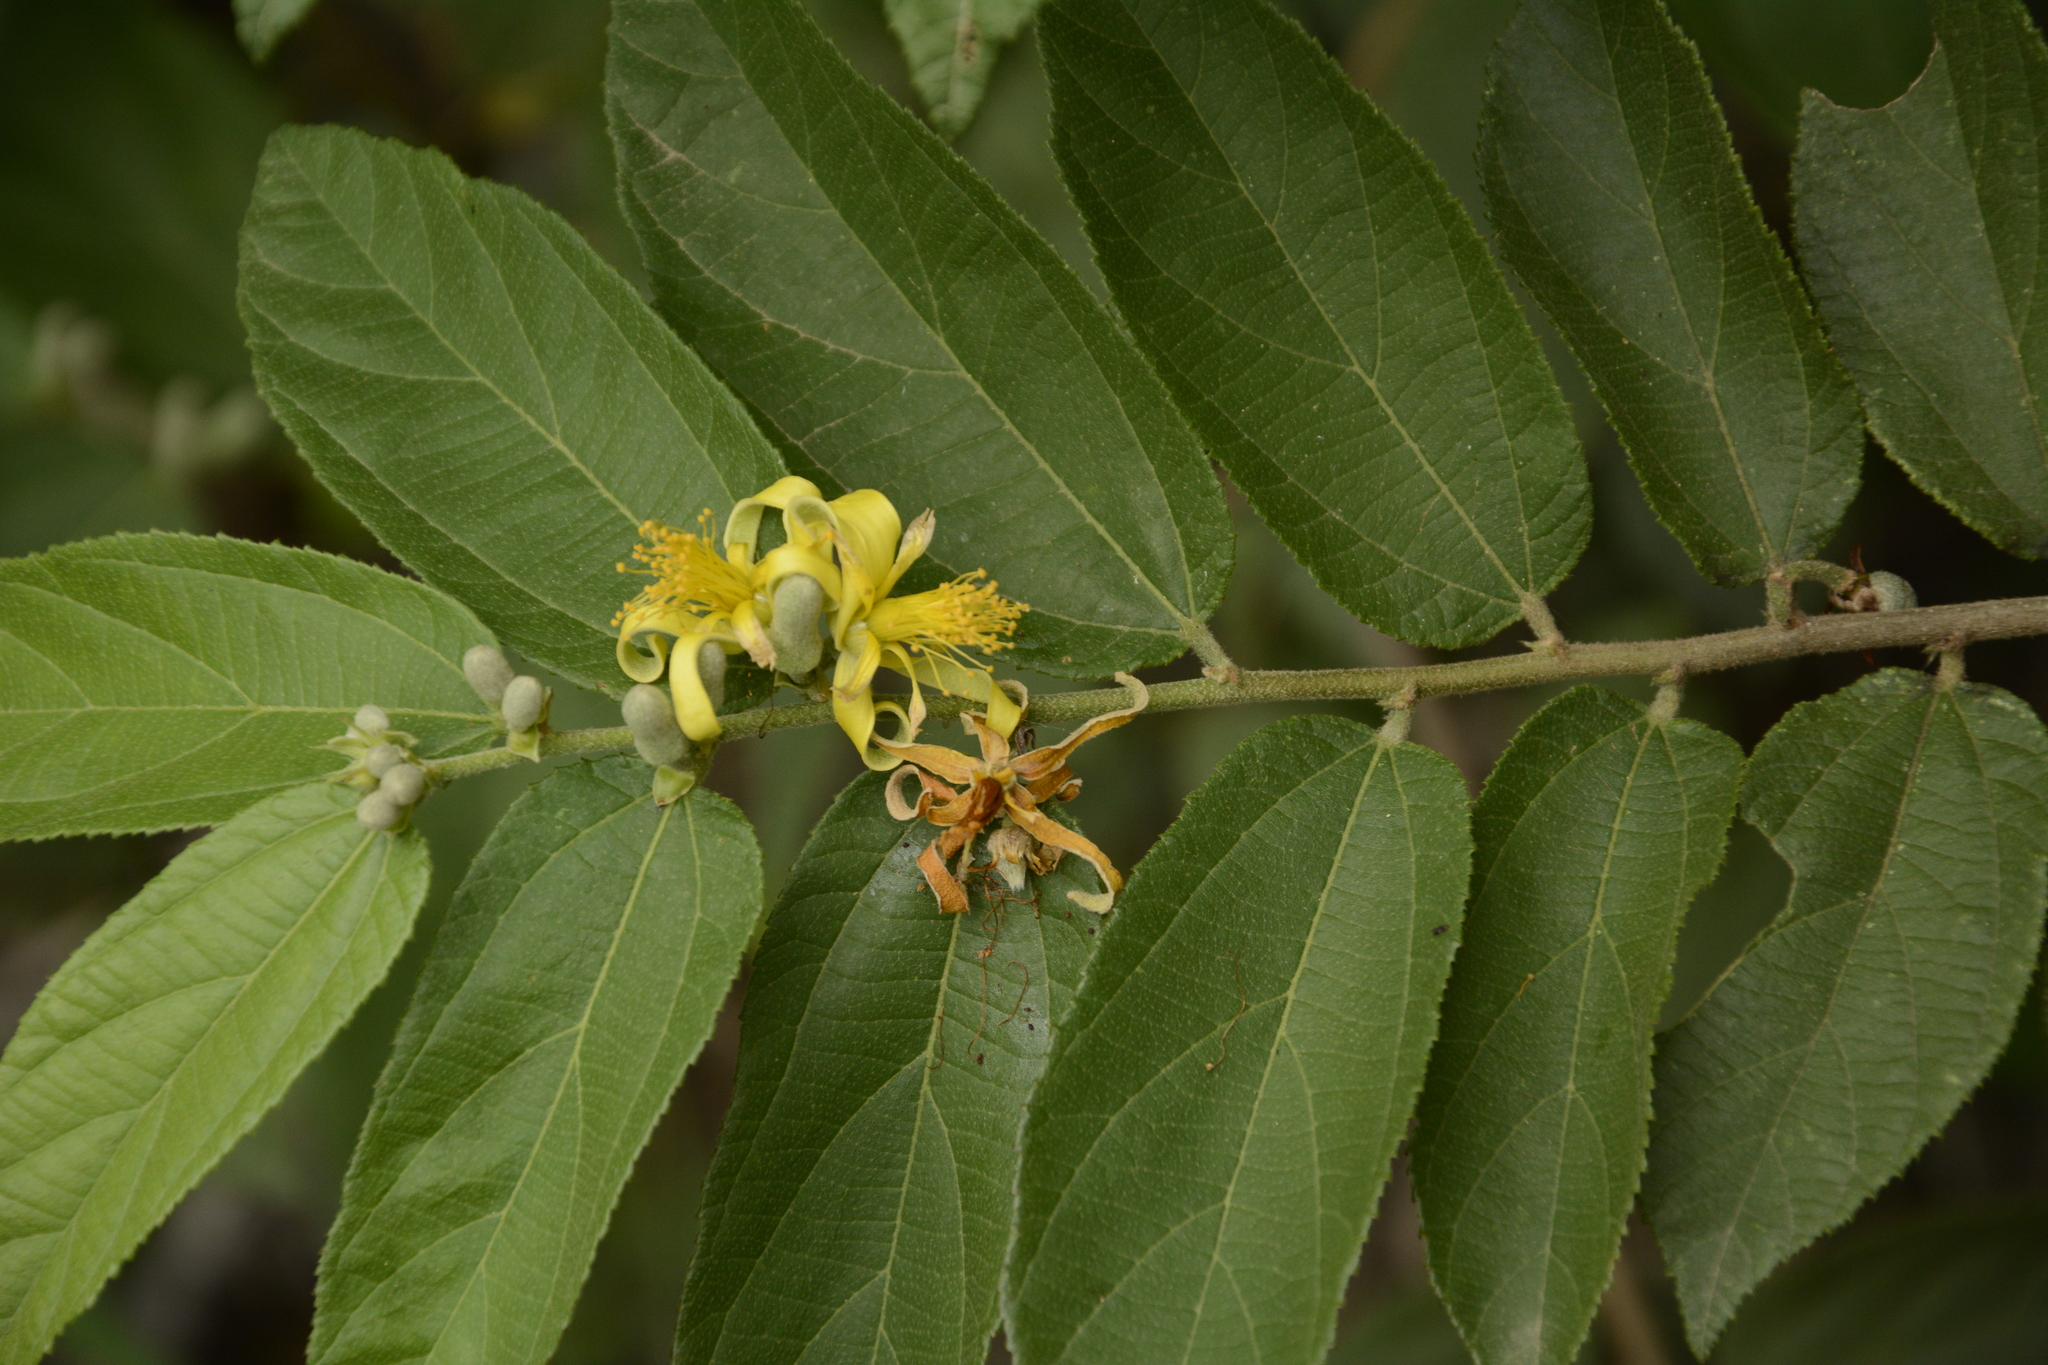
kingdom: Plantae
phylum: Tracheophyta
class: Magnoliopsida
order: Malvales
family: Malvaceae
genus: Grewia
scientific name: Grewia flavescens
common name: Sandpaper raisin
